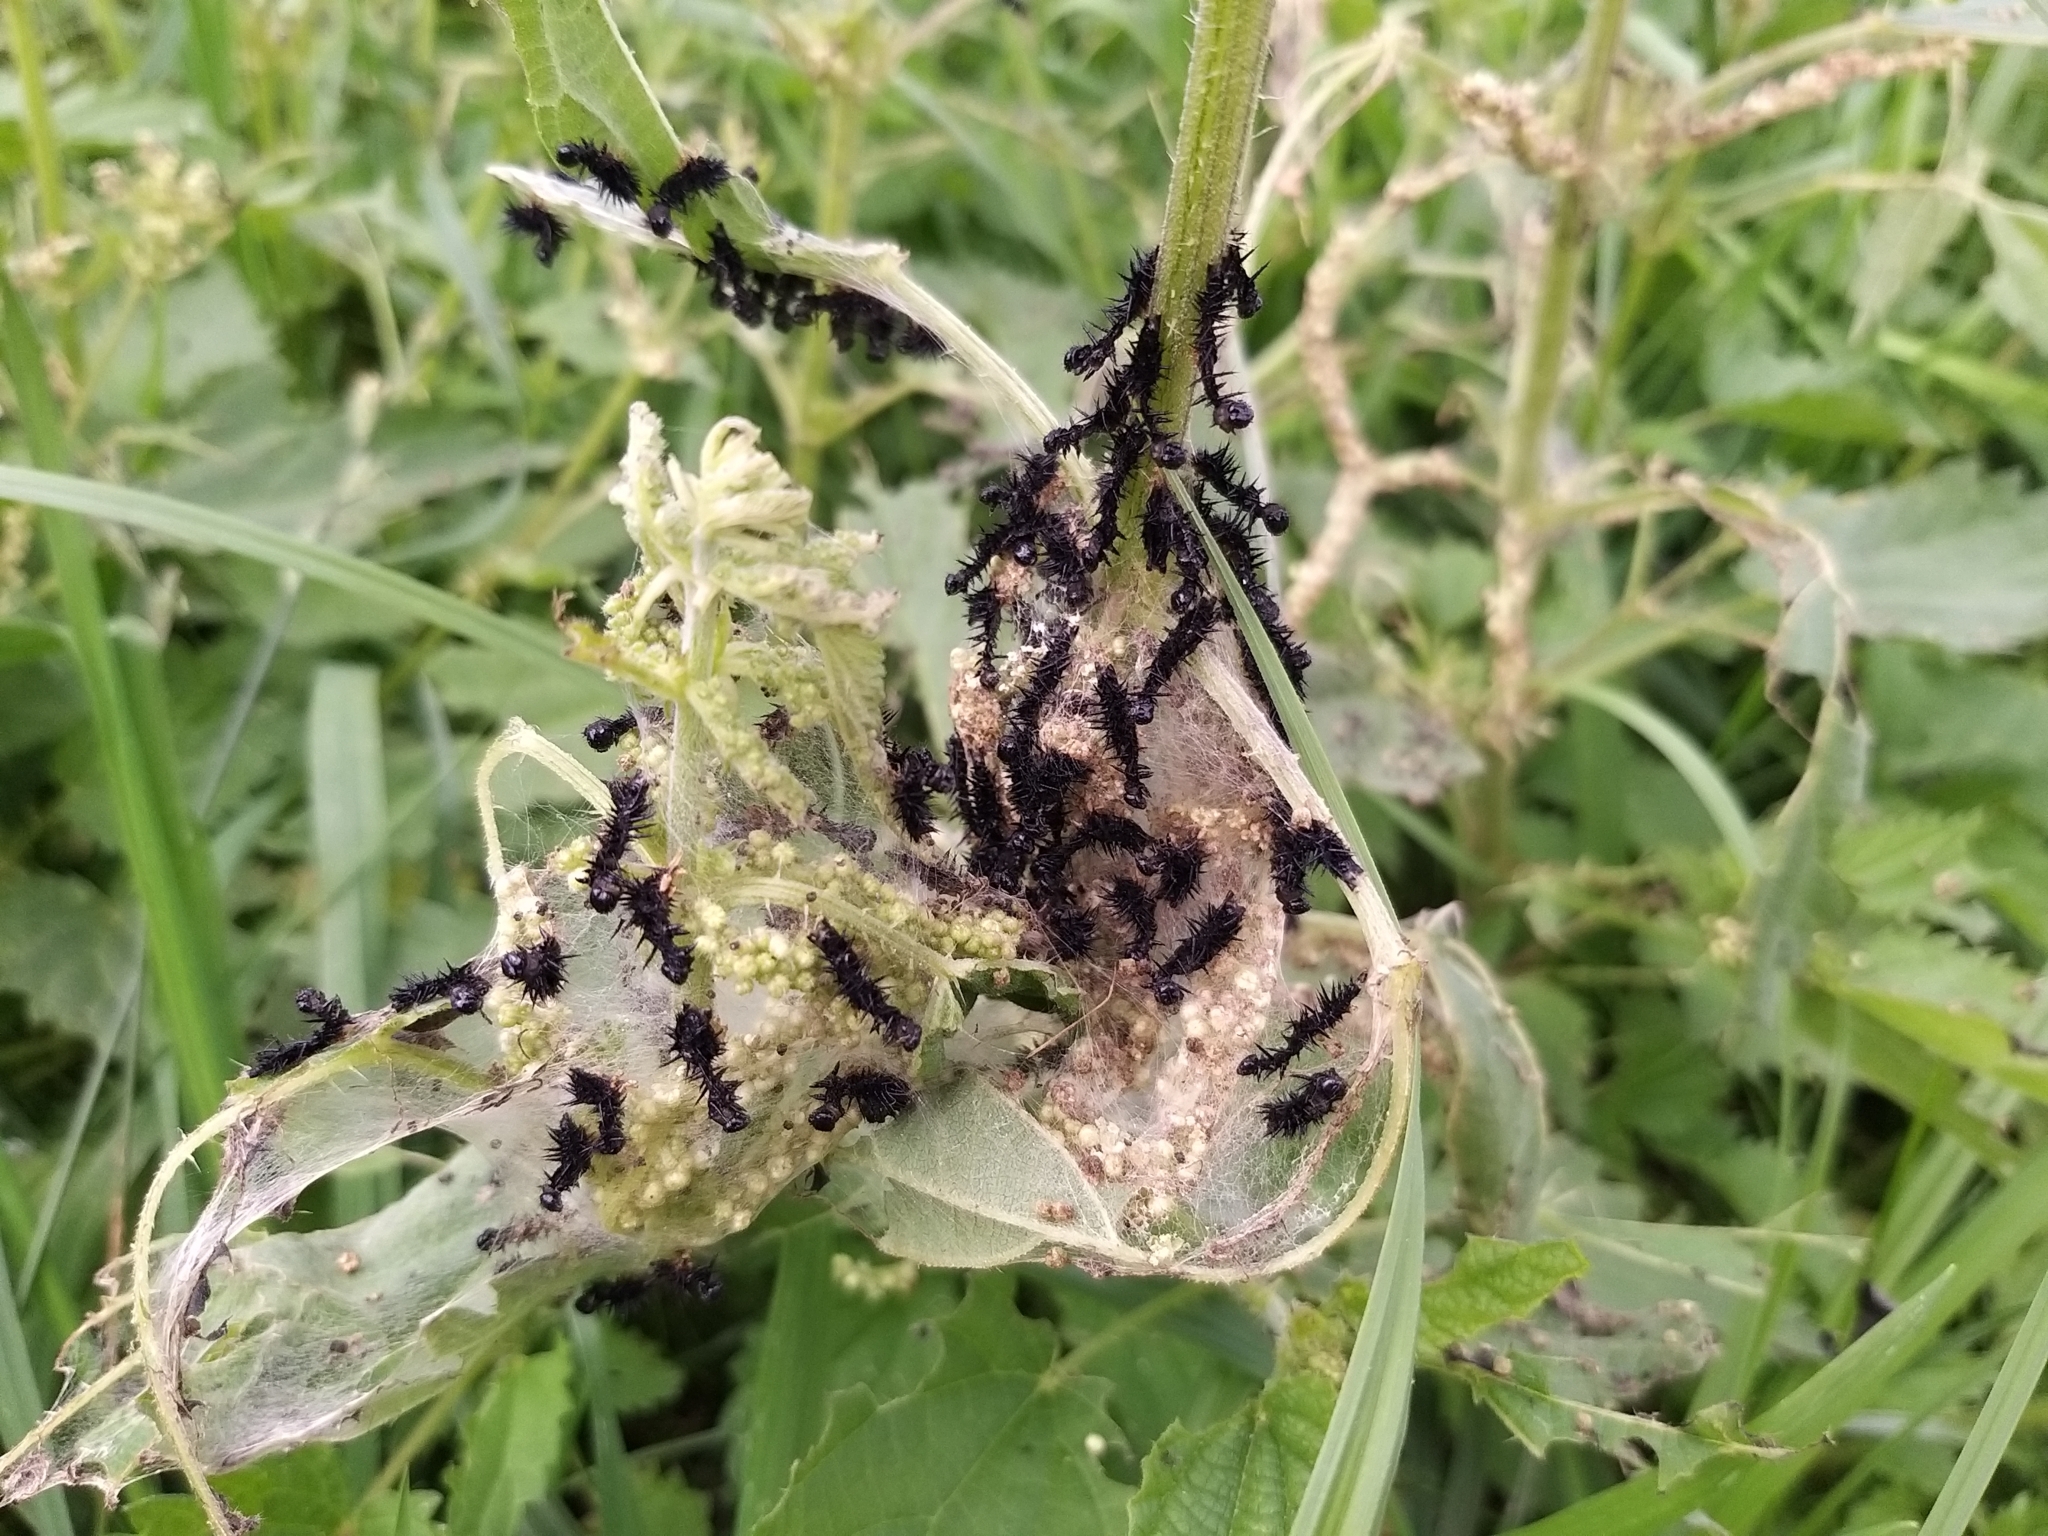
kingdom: Animalia
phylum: Arthropoda
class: Insecta
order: Lepidoptera
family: Nymphalidae
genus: Aglais
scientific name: Aglais io
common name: Peacock
